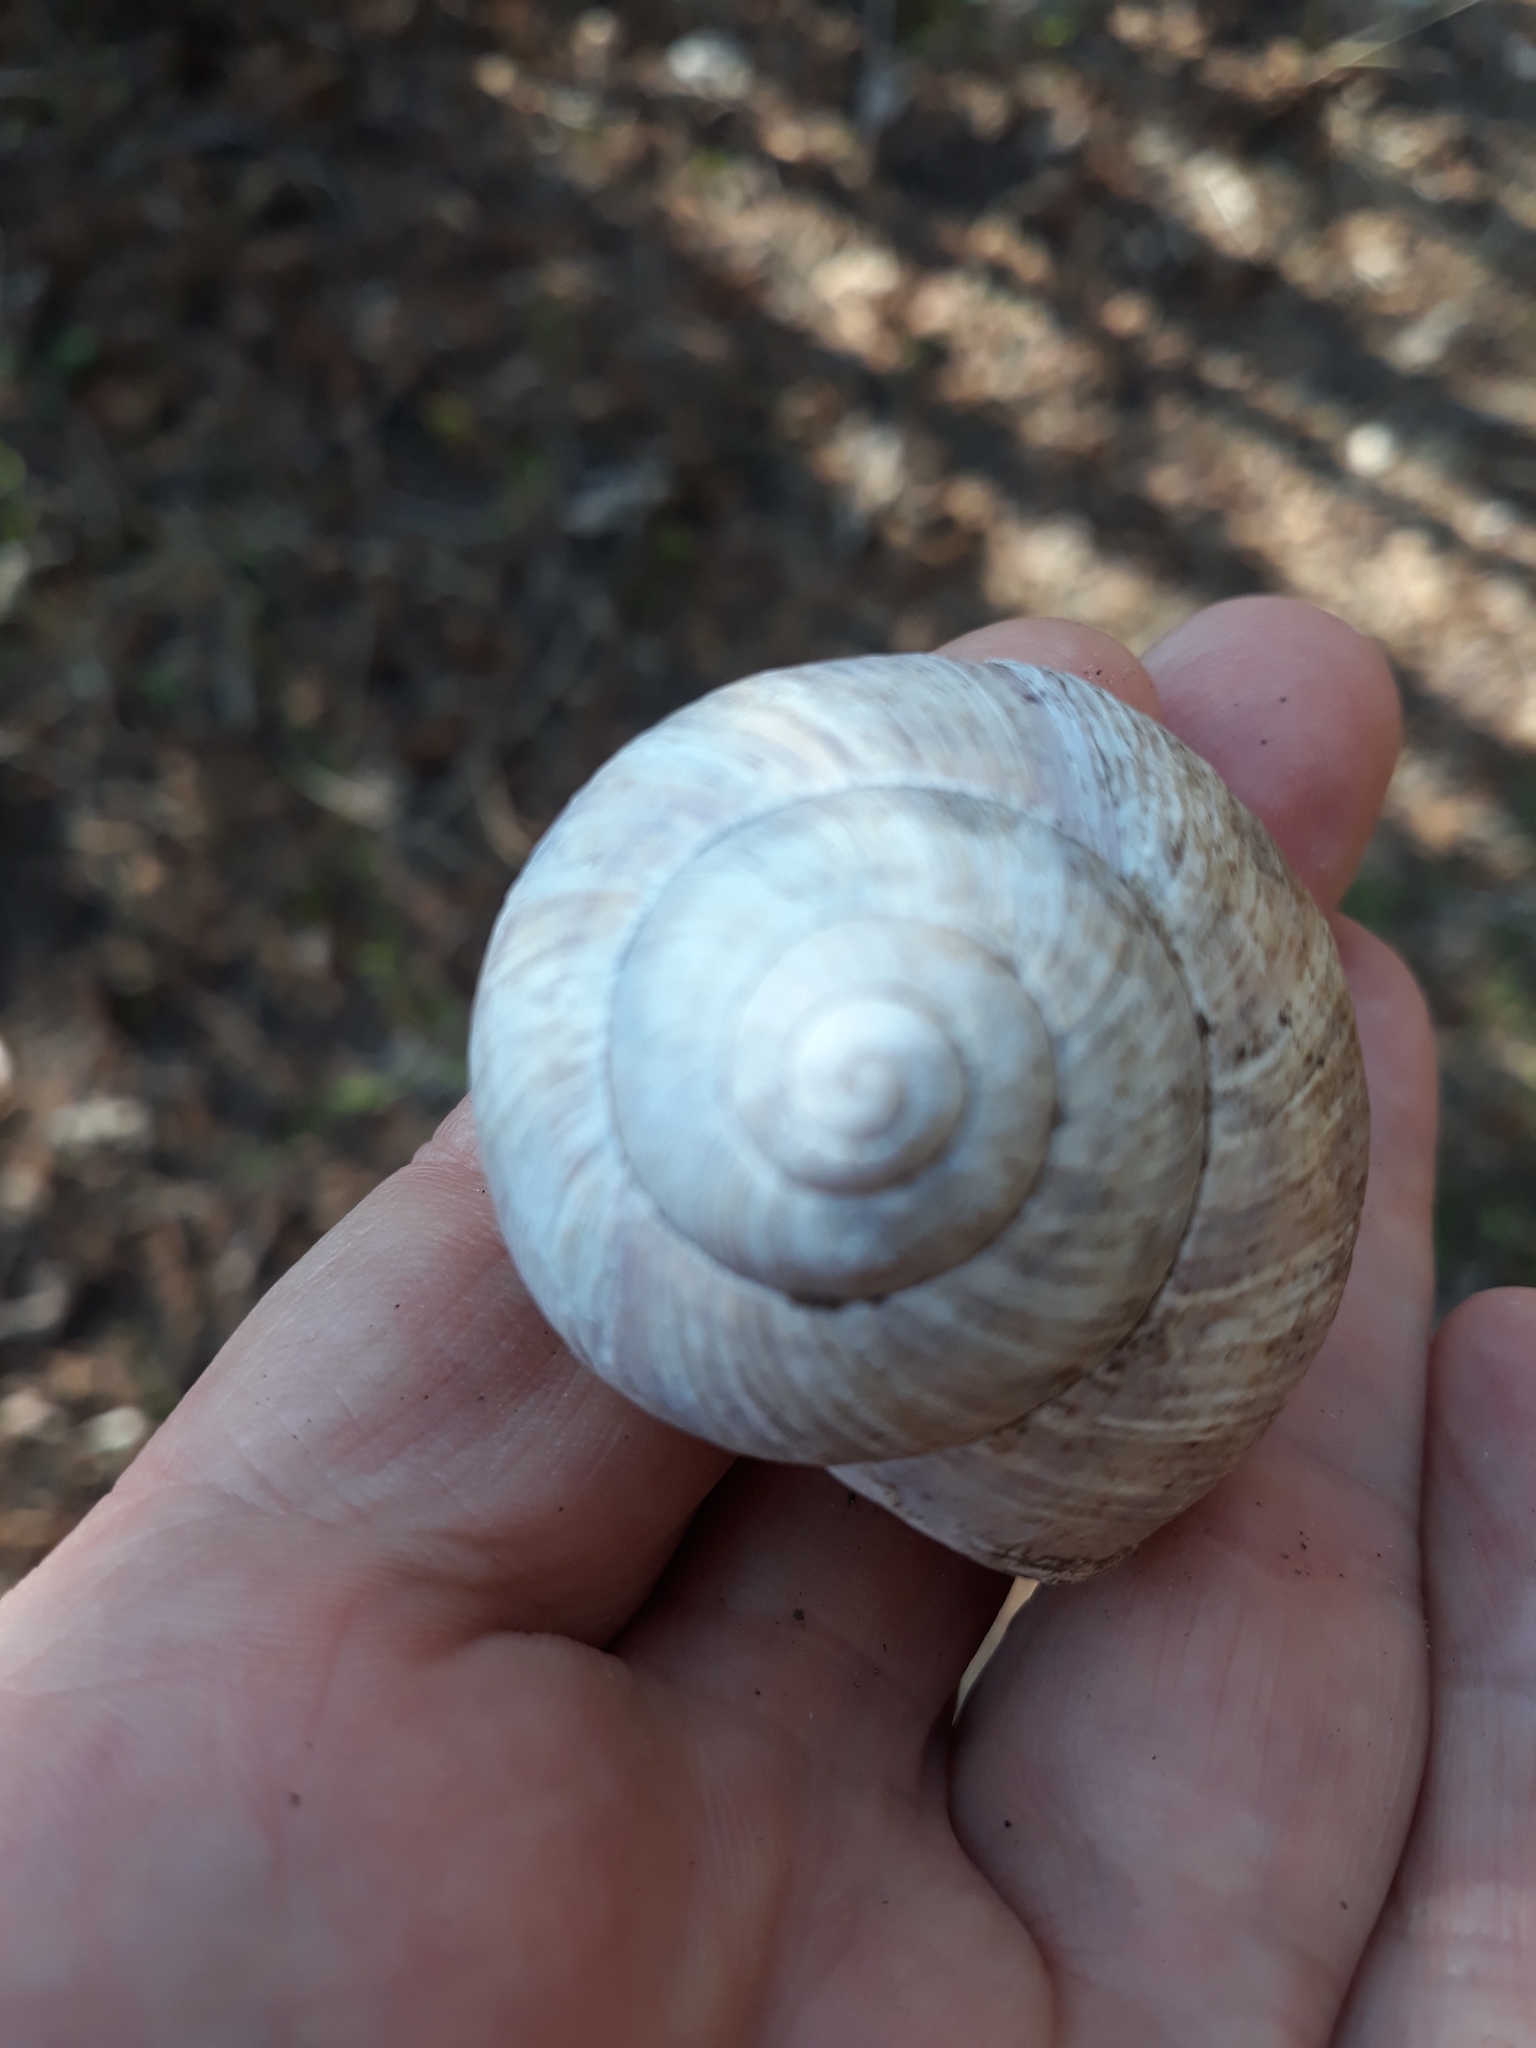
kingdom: Animalia
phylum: Mollusca
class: Gastropoda
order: Stylommatophora
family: Helicidae
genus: Helix
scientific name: Helix pomatia
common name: Roman snail
